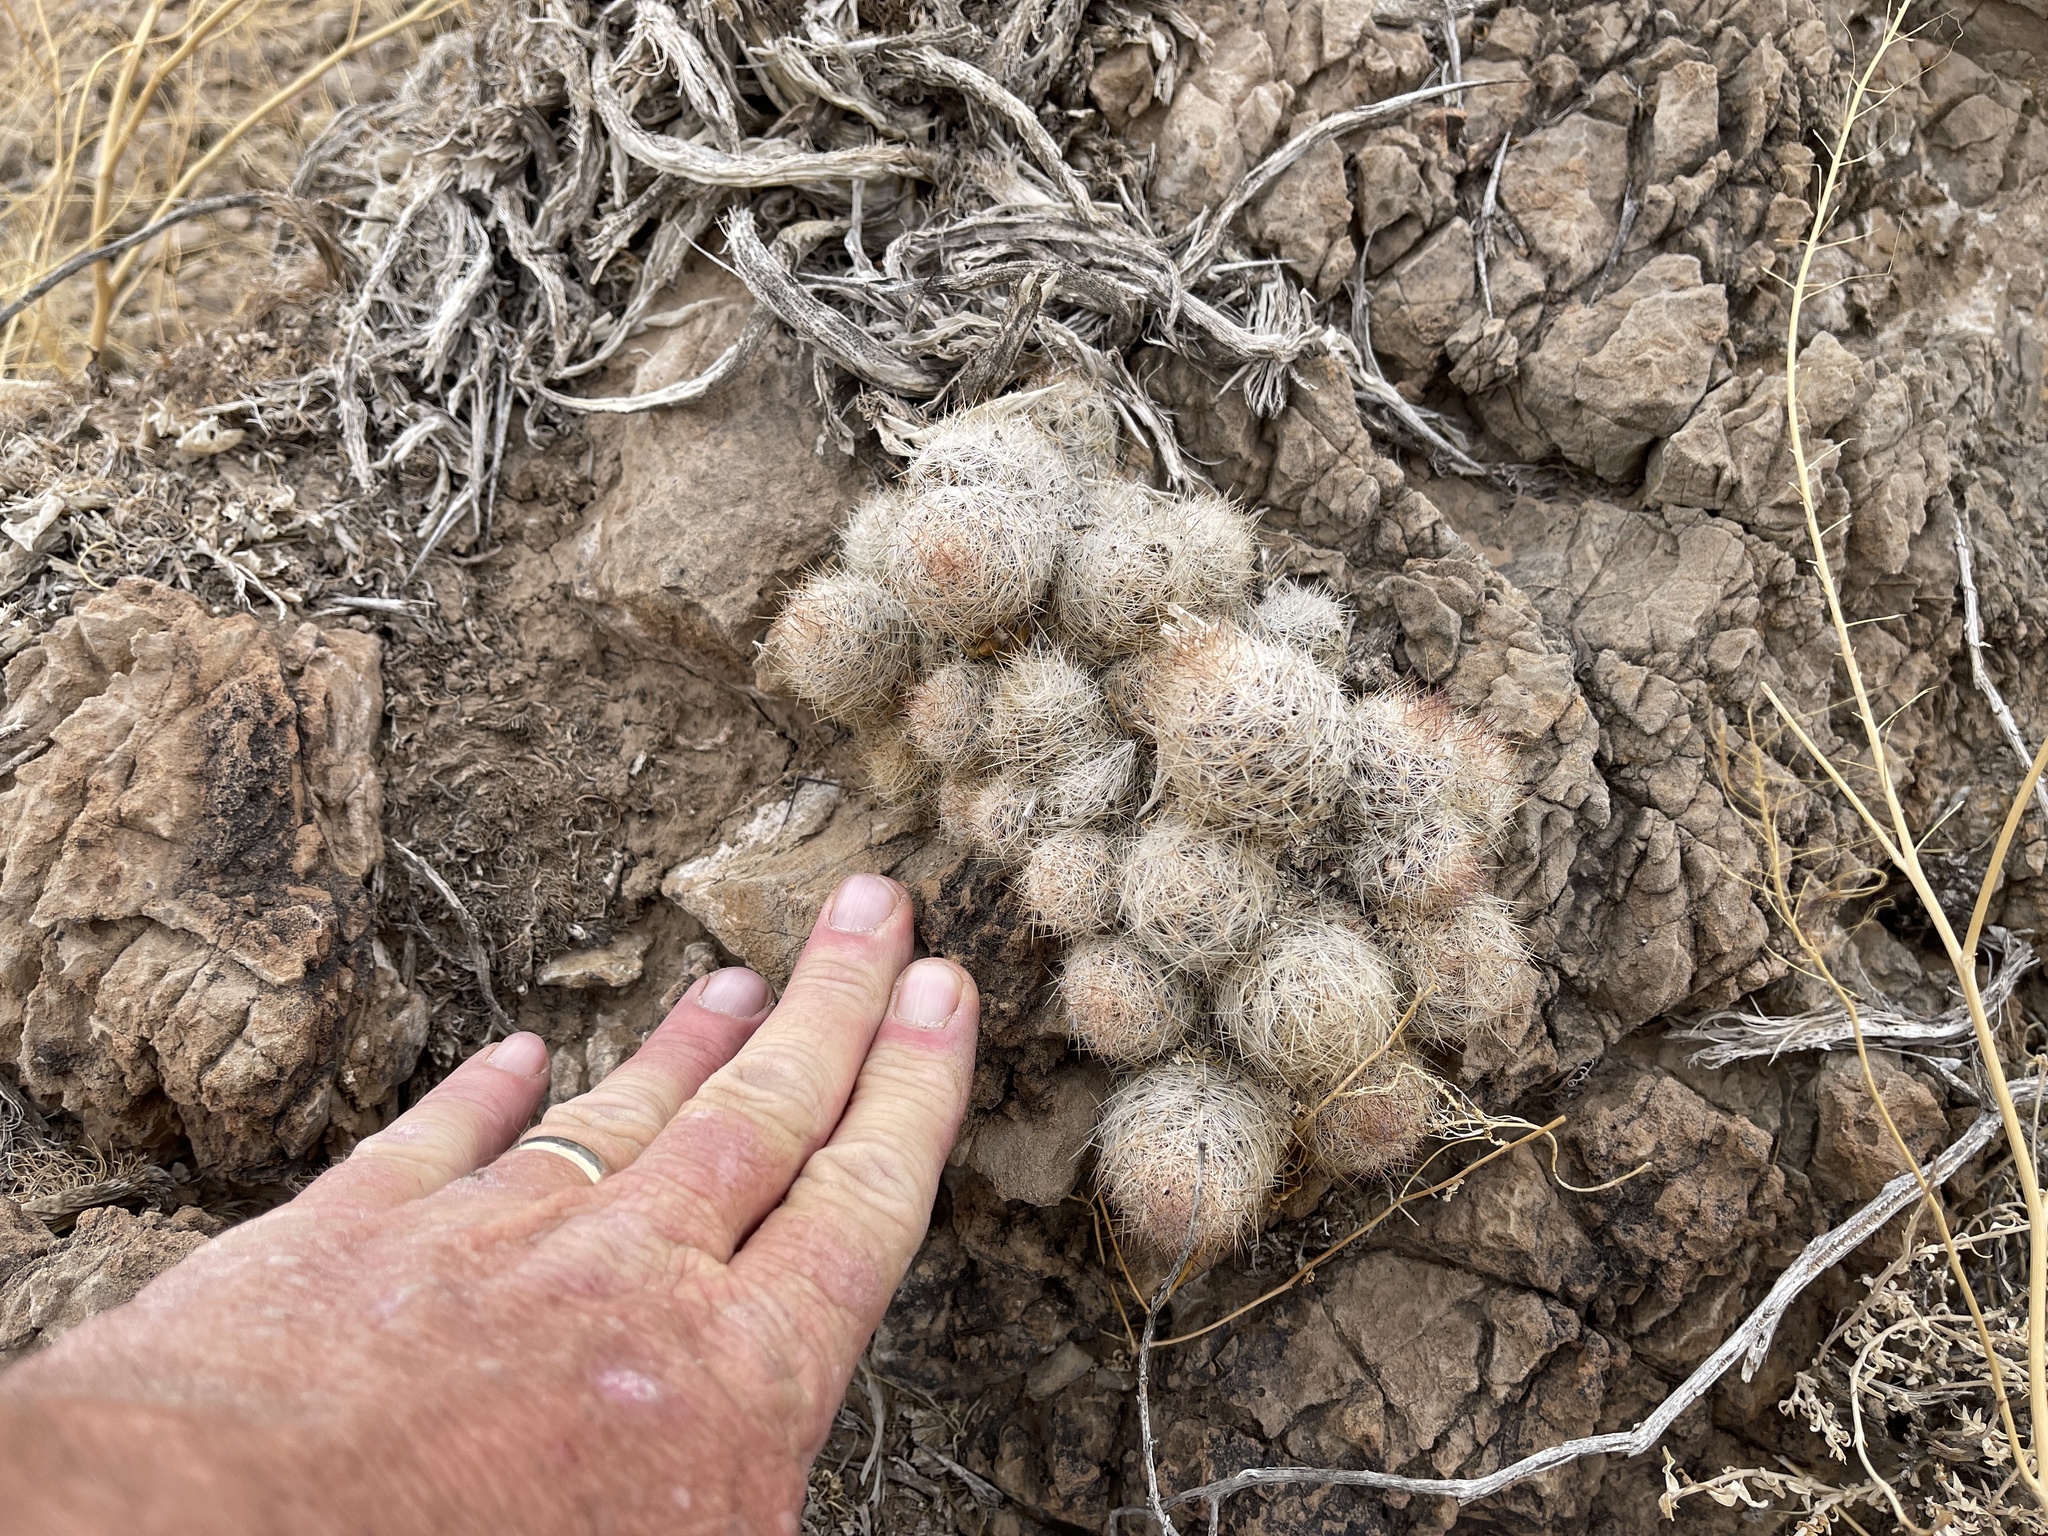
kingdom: Plantae
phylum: Tracheophyta
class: Magnoliopsida
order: Caryophyllales
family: Cactaceae
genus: Pelecyphora
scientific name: Pelecyphora tuberculosa
